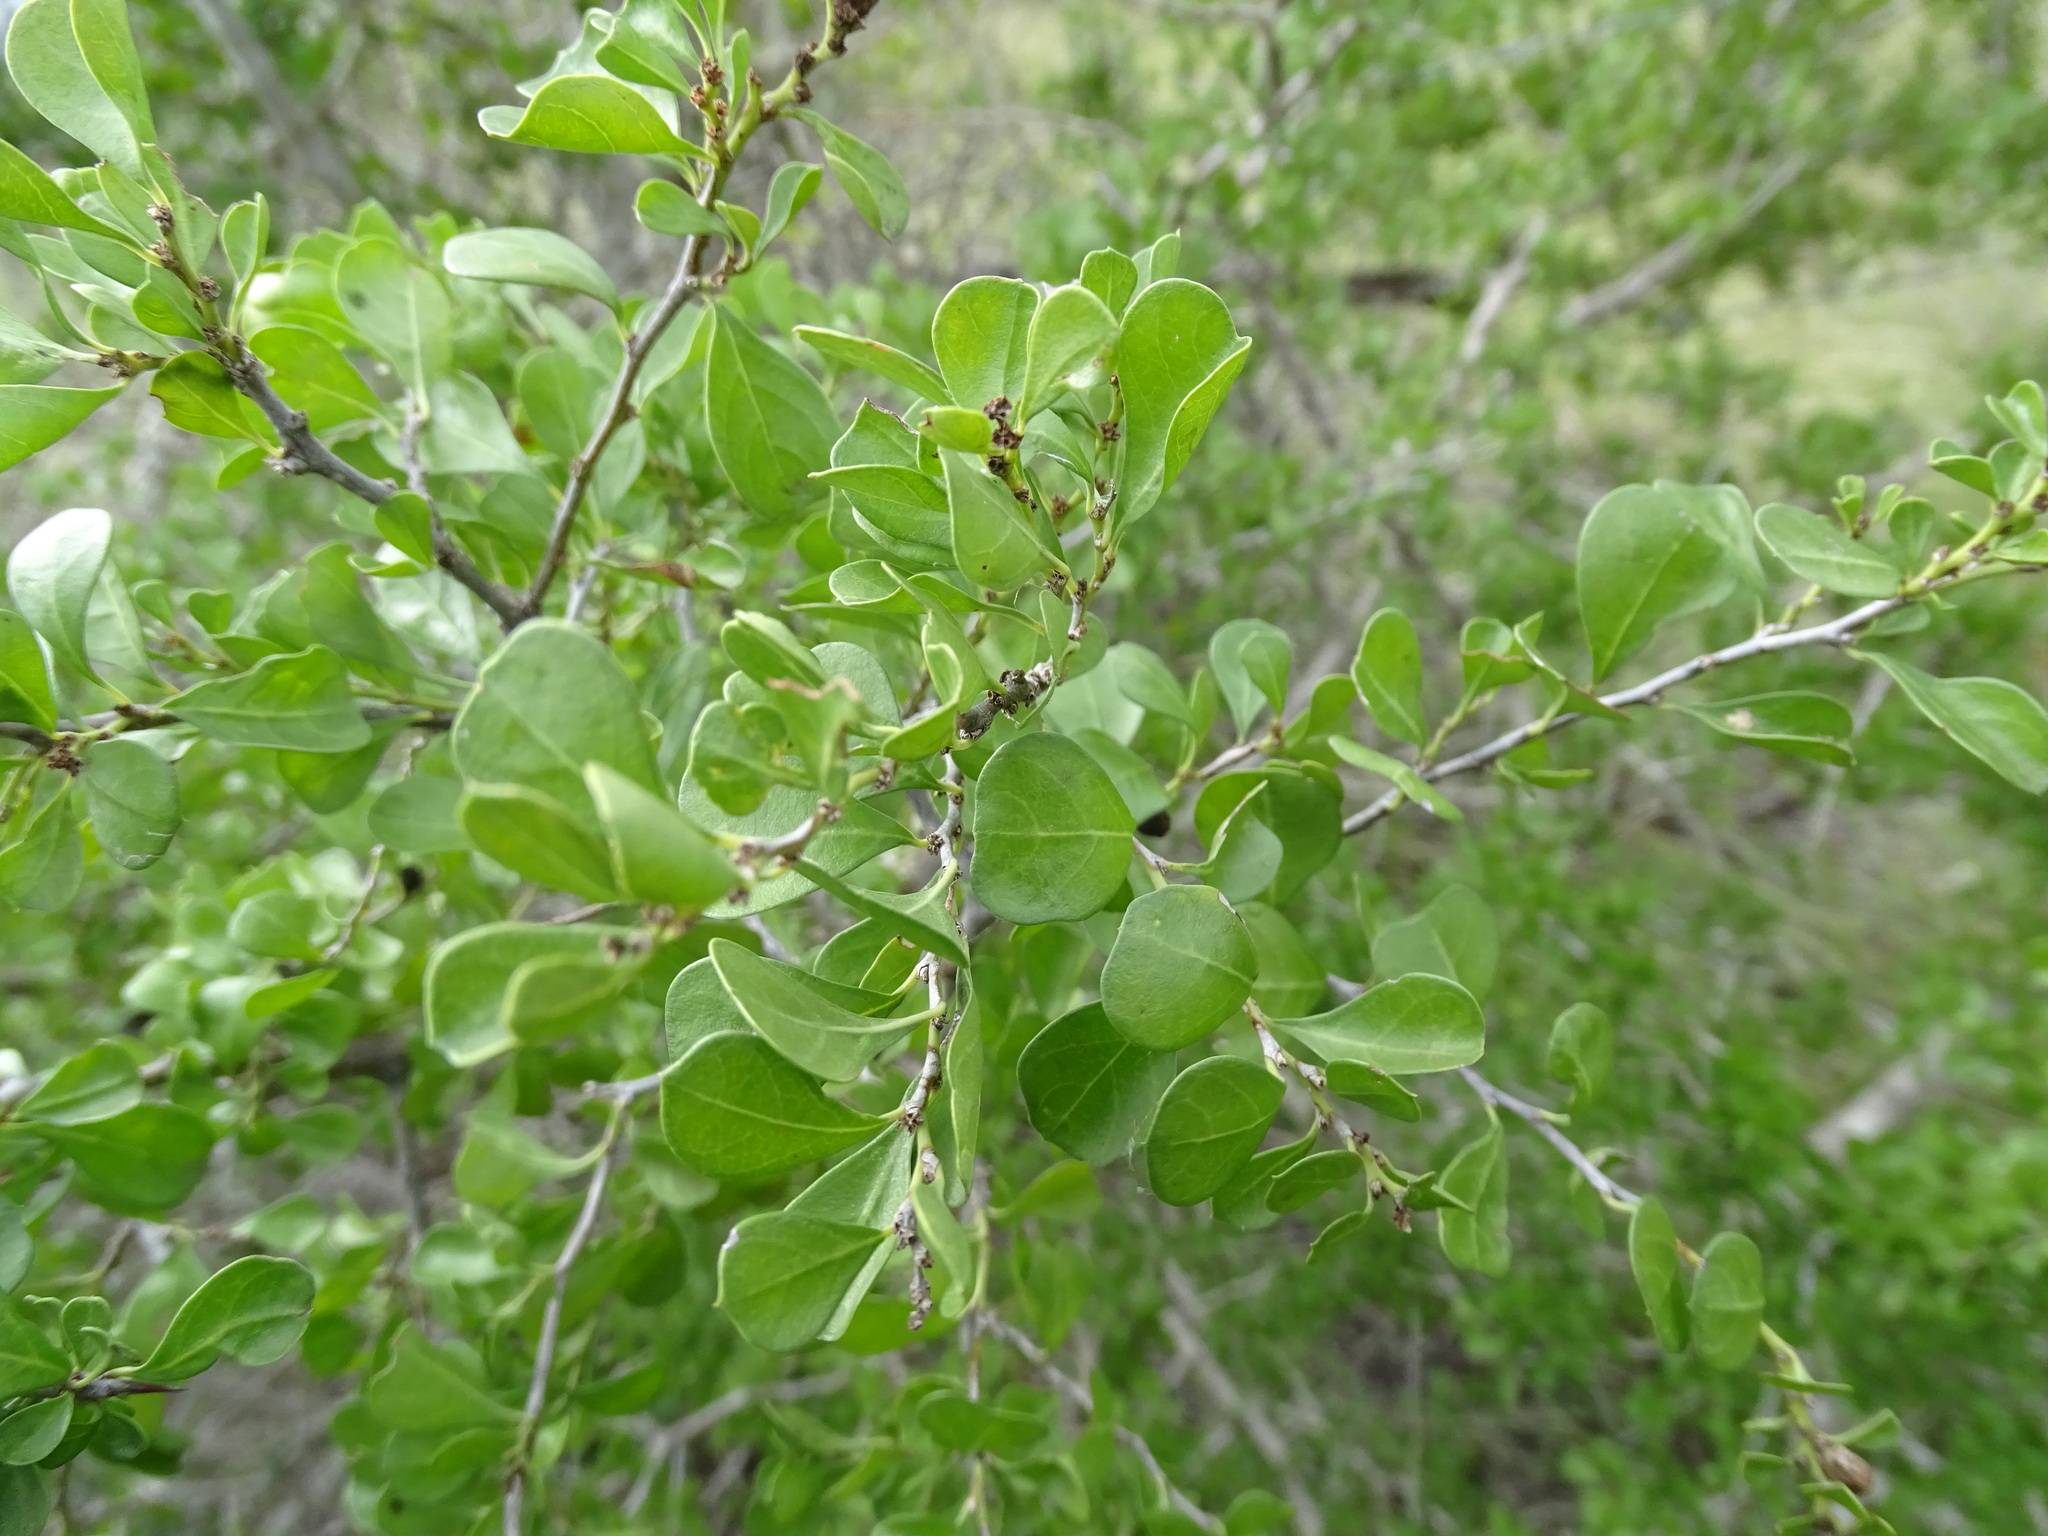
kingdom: Plantae
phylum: Tracheophyta
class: Magnoliopsida
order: Rosales
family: Rhamnaceae
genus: Condalia
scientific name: Condalia hookeri
